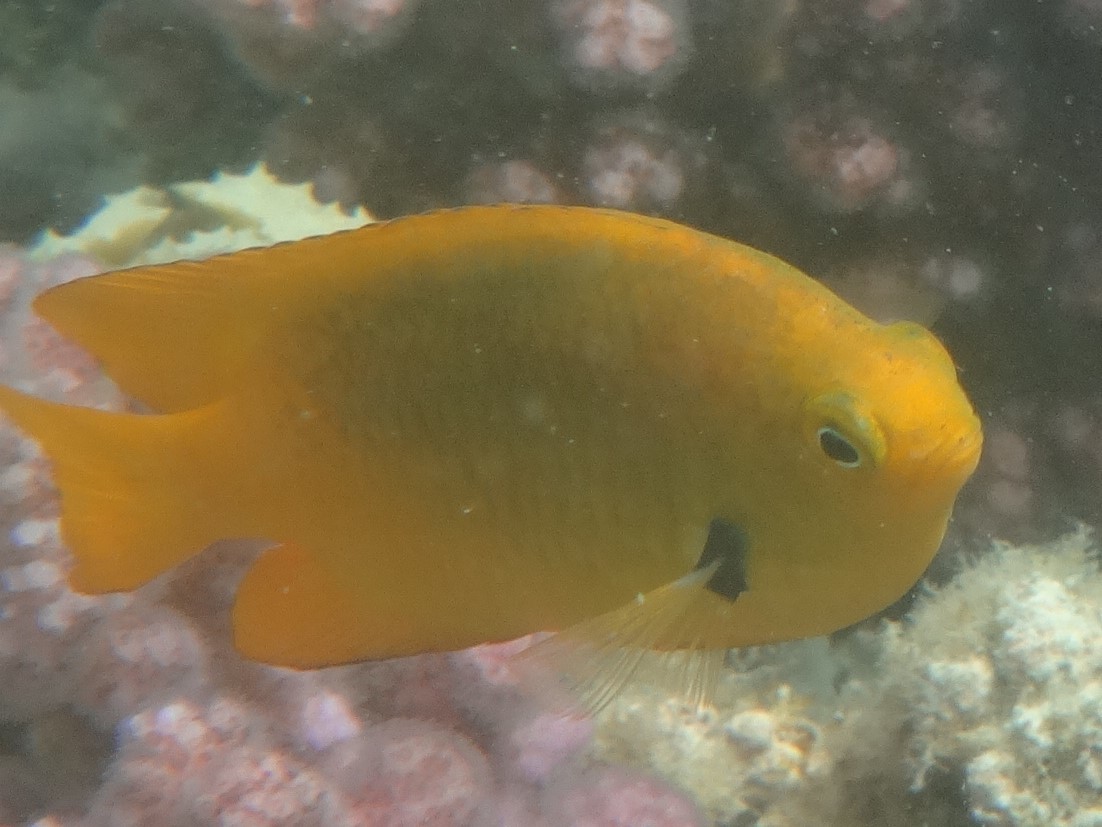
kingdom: Animalia
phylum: Chordata
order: Perciformes
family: Pomacentridae
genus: Pomacentrus
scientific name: Pomacentrus sulfureus
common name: Sulfur damsel
